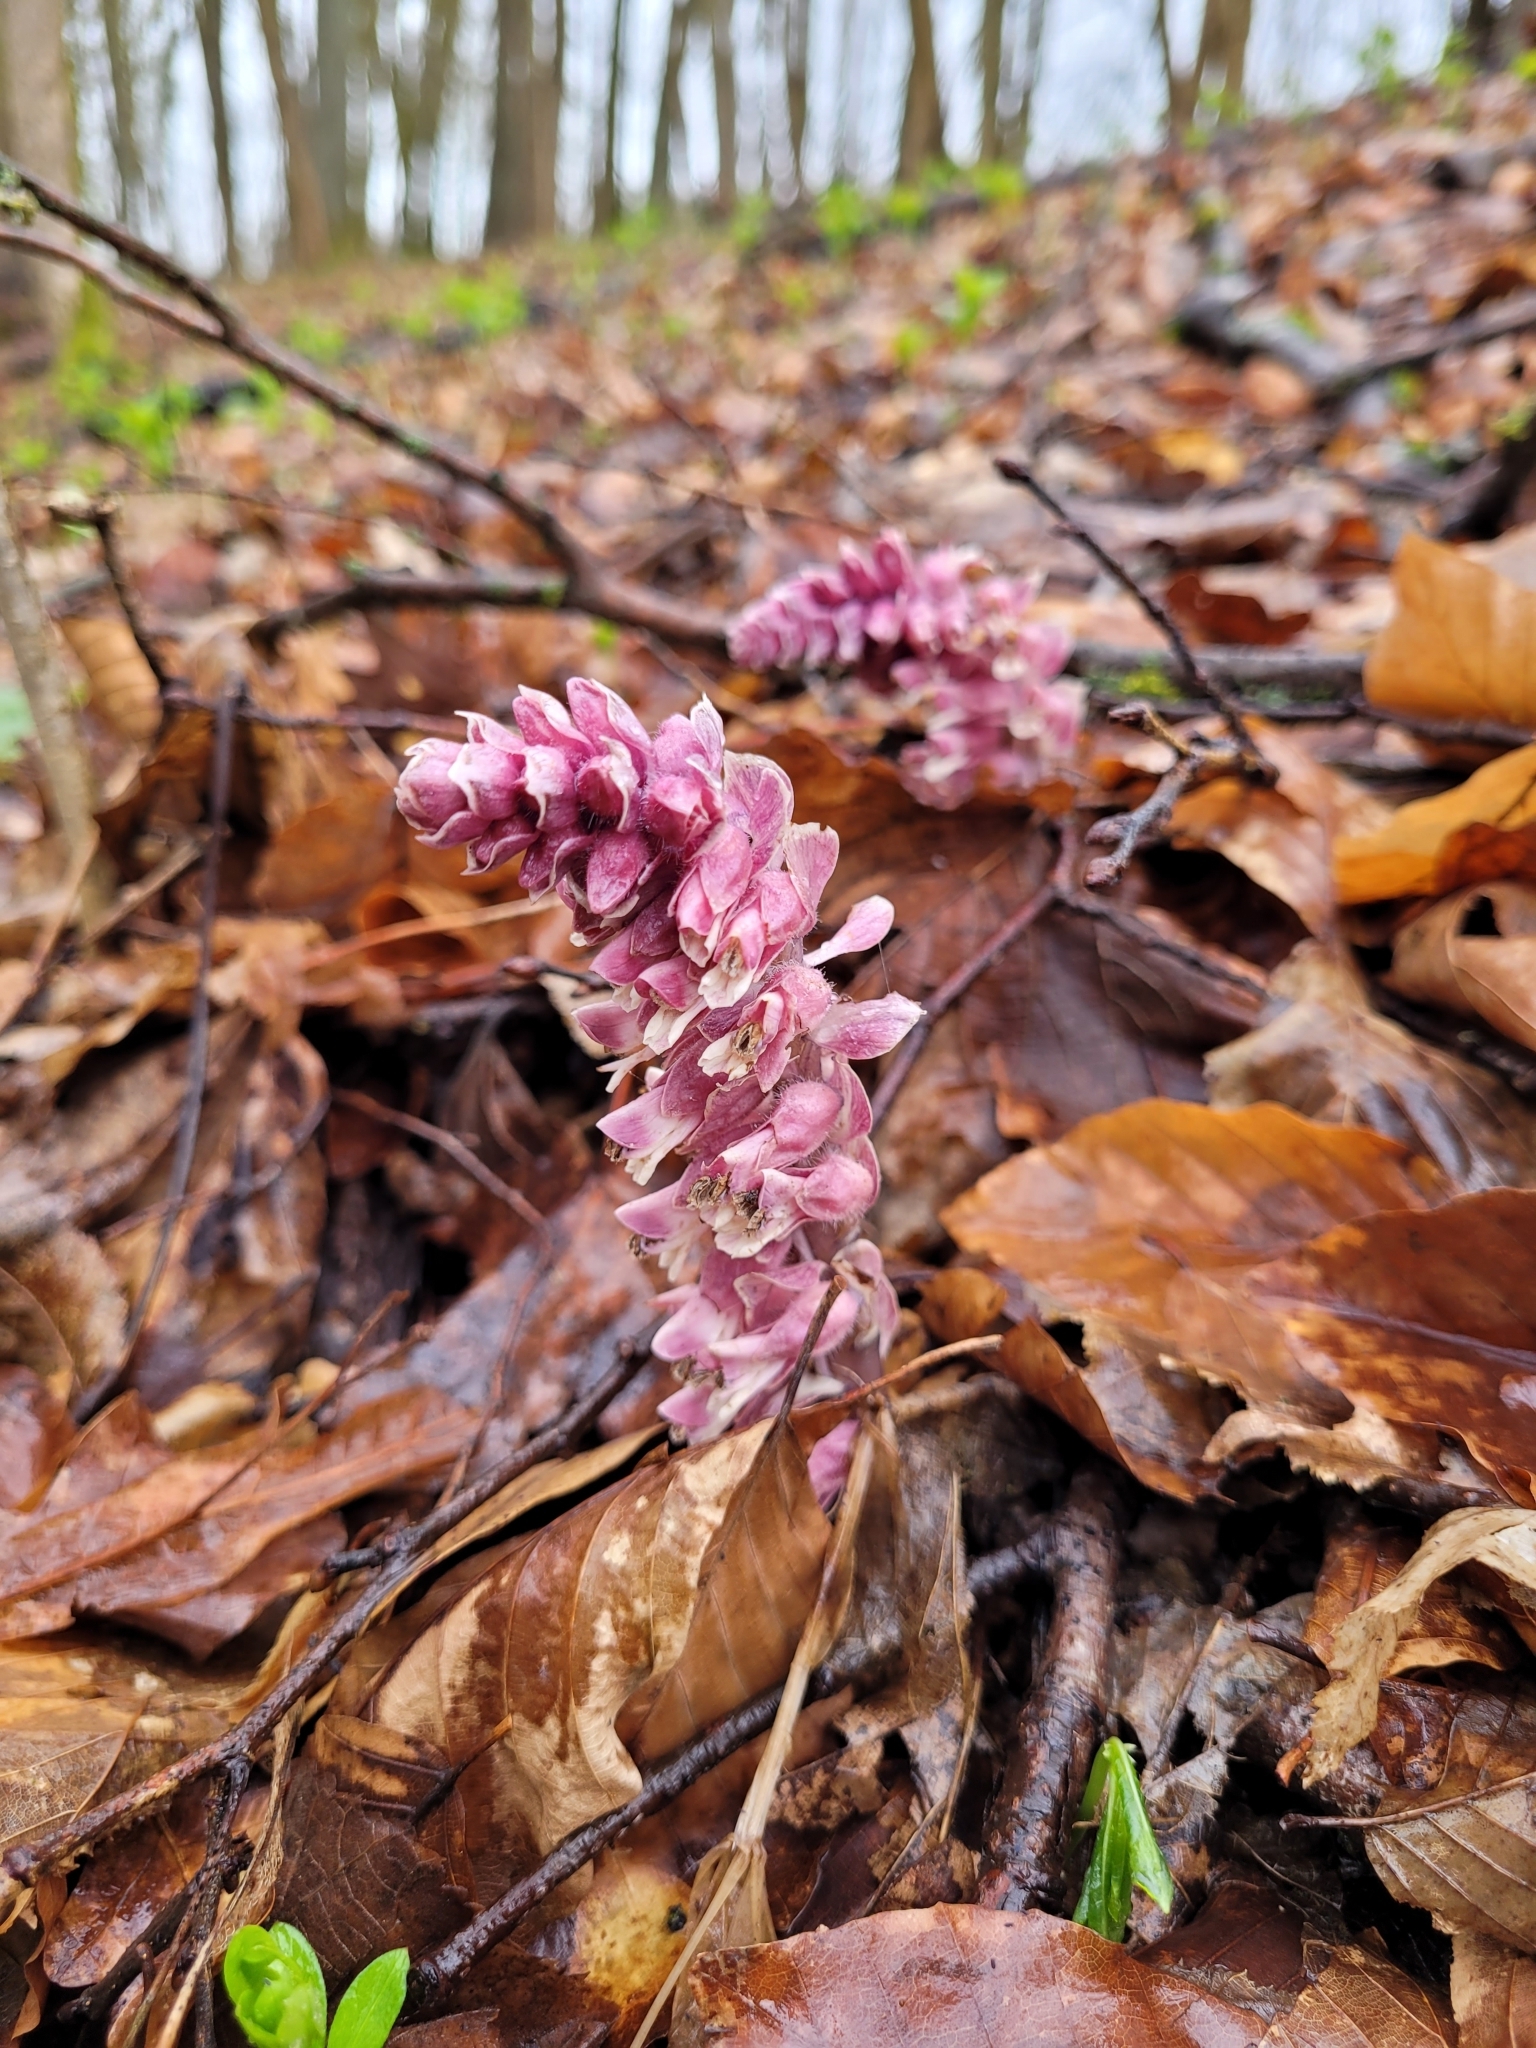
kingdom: Plantae
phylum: Tracheophyta
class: Magnoliopsida
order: Lamiales
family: Orobanchaceae
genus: Lathraea
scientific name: Lathraea squamaria
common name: Toothwort
